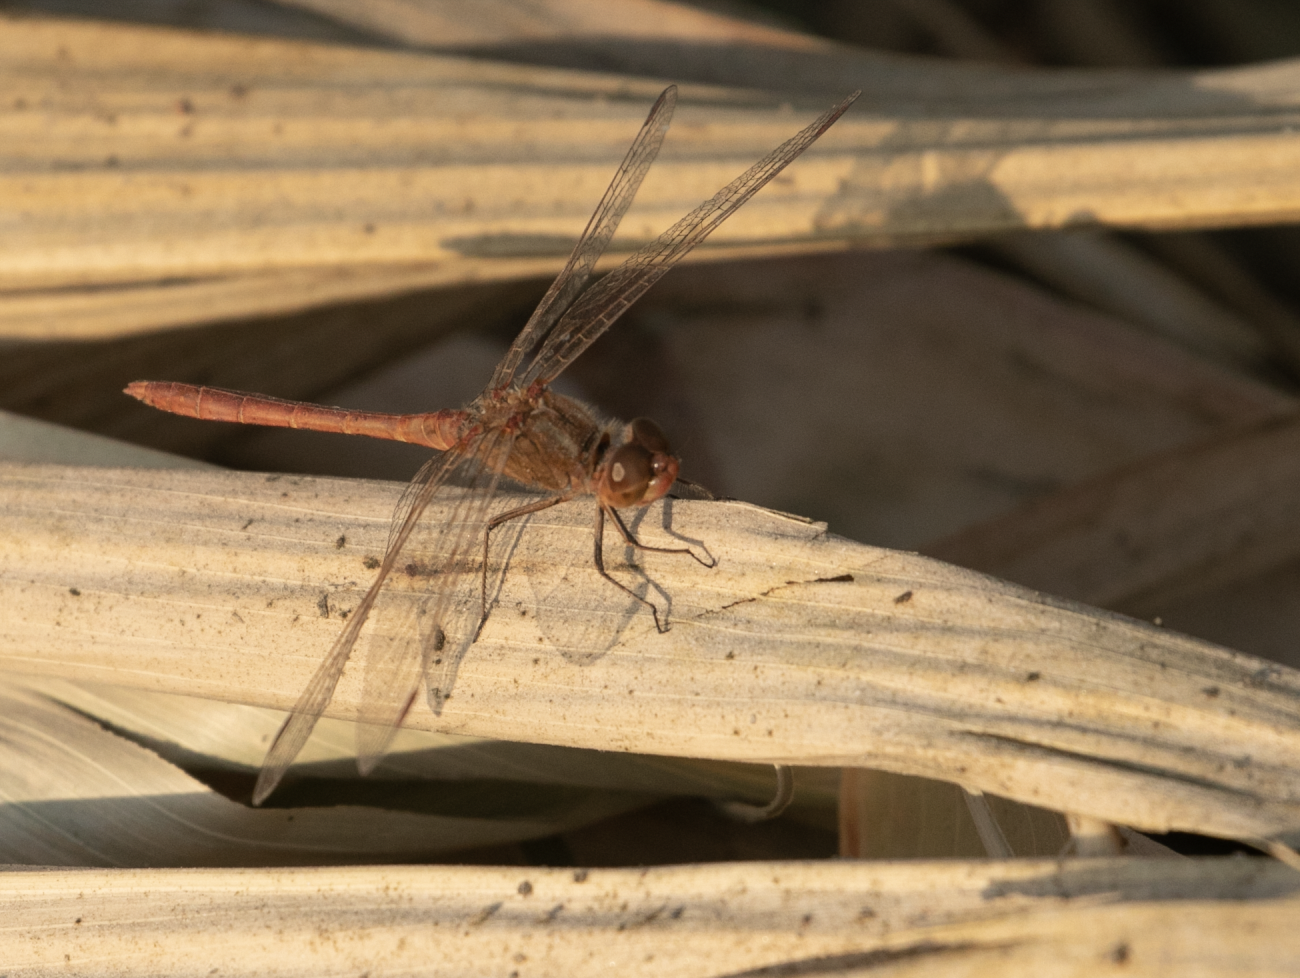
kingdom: Animalia
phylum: Arthropoda
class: Insecta
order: Odonata
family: Libellulidae
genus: Sympetrum
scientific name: Sympetrum meridionale
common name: Southern darter
